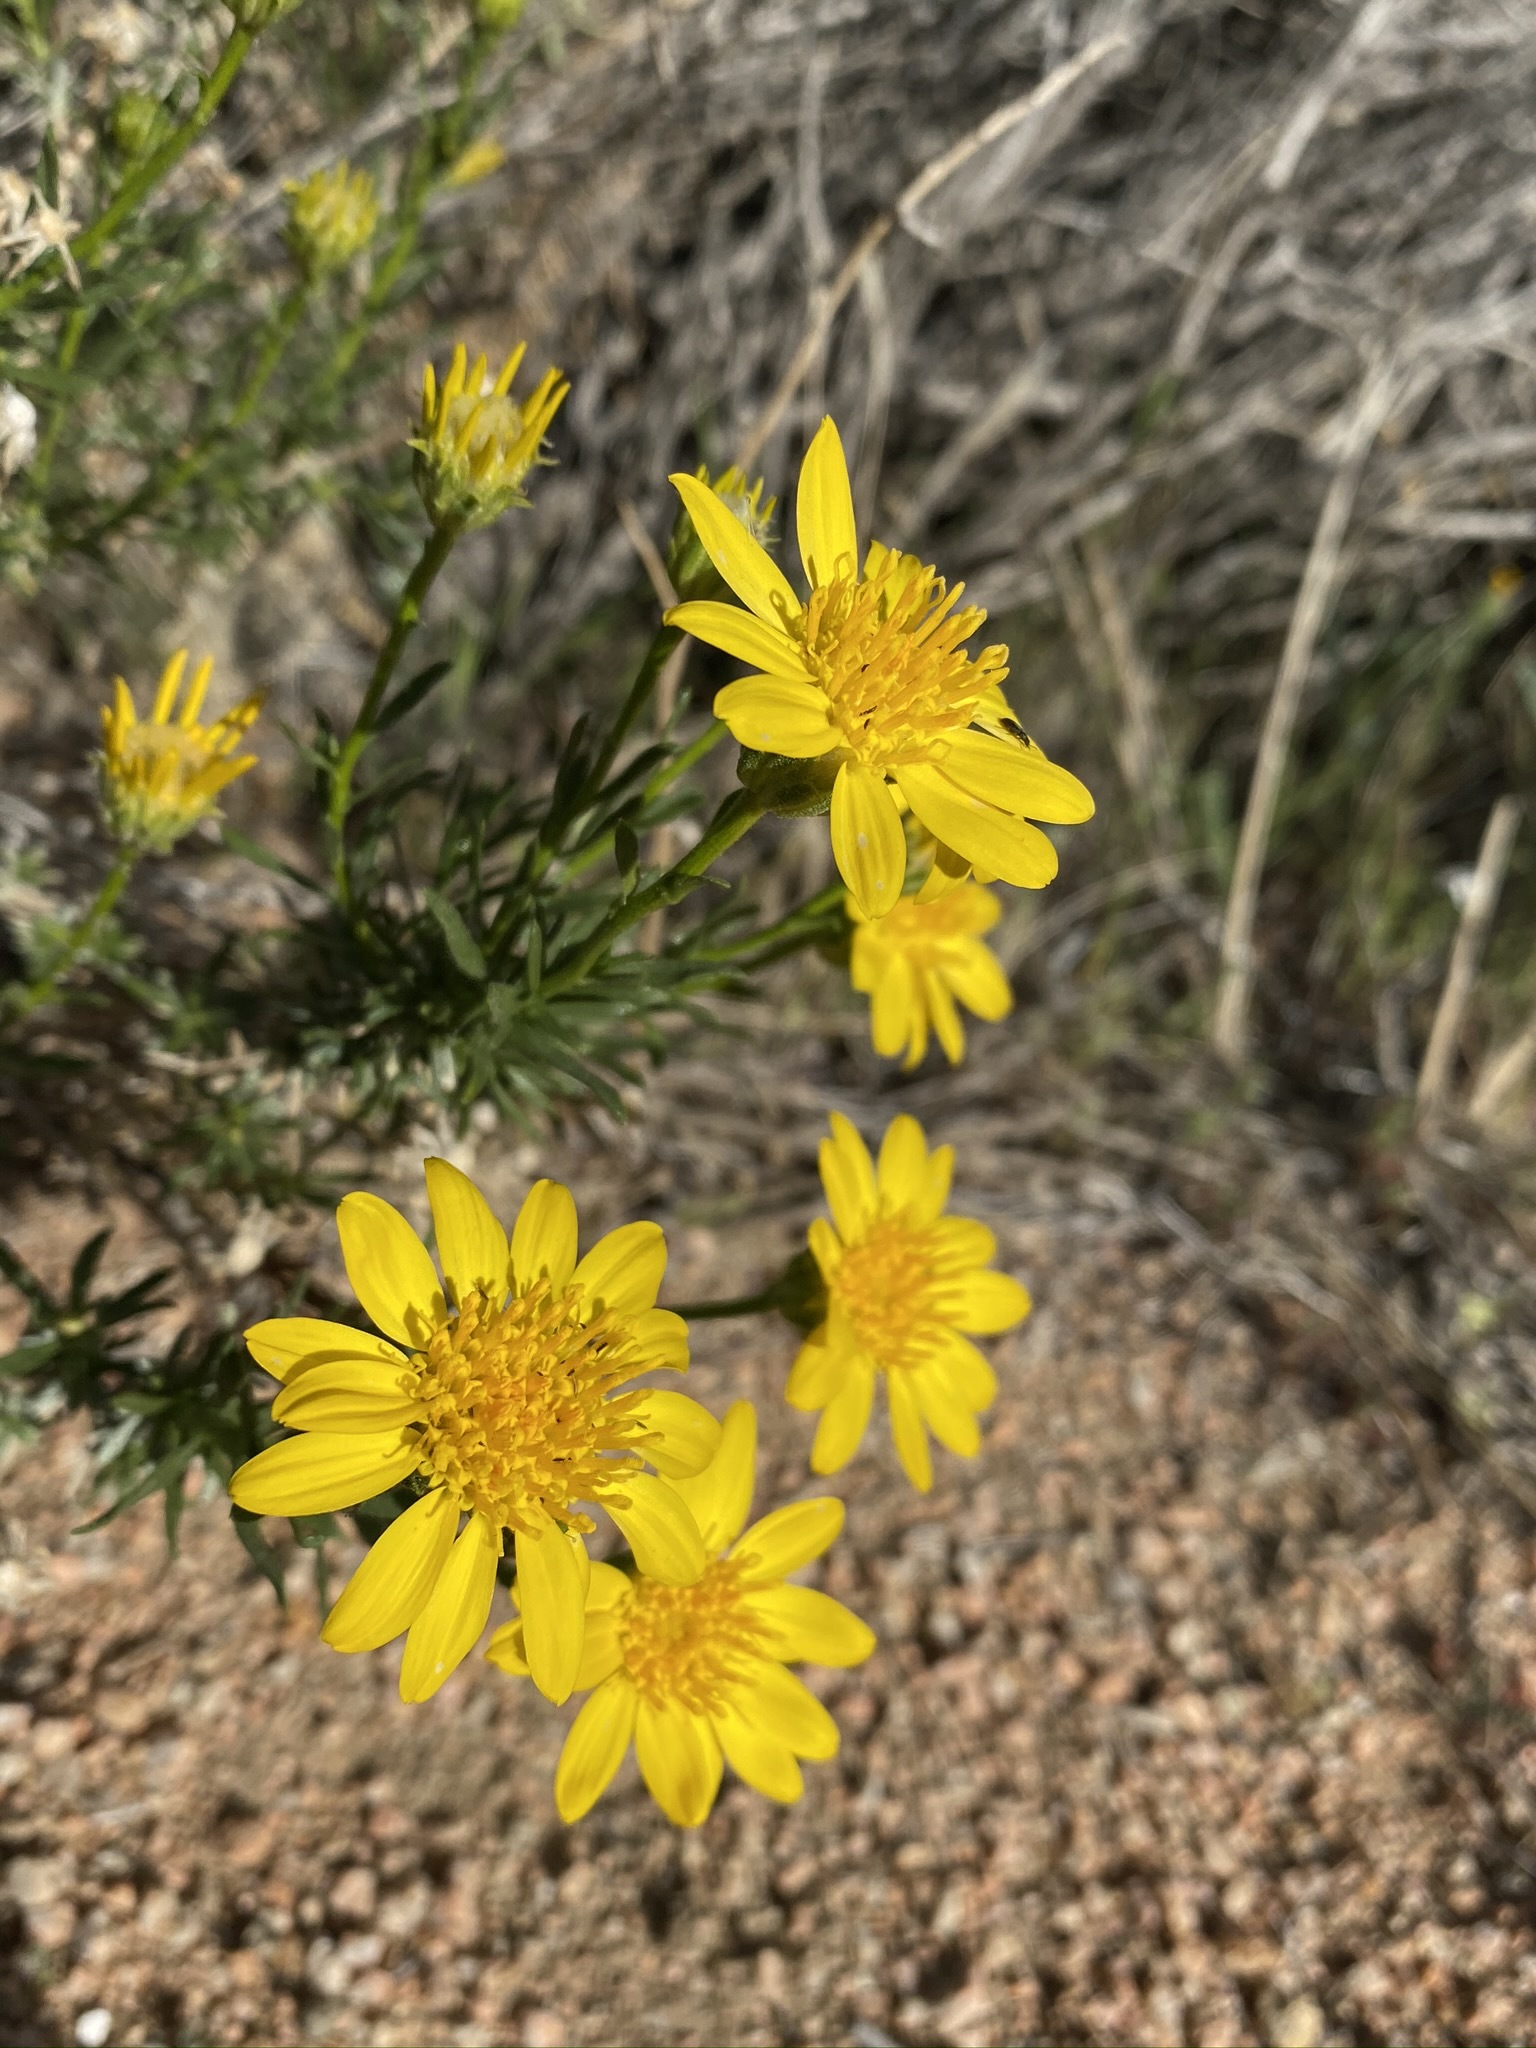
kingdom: Plantae
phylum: Tracheophyta
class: Magnoliopsida
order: Asterales
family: Asteraceae
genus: Ericameria
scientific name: Ericameria linearifolia
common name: Interior goldenbush
